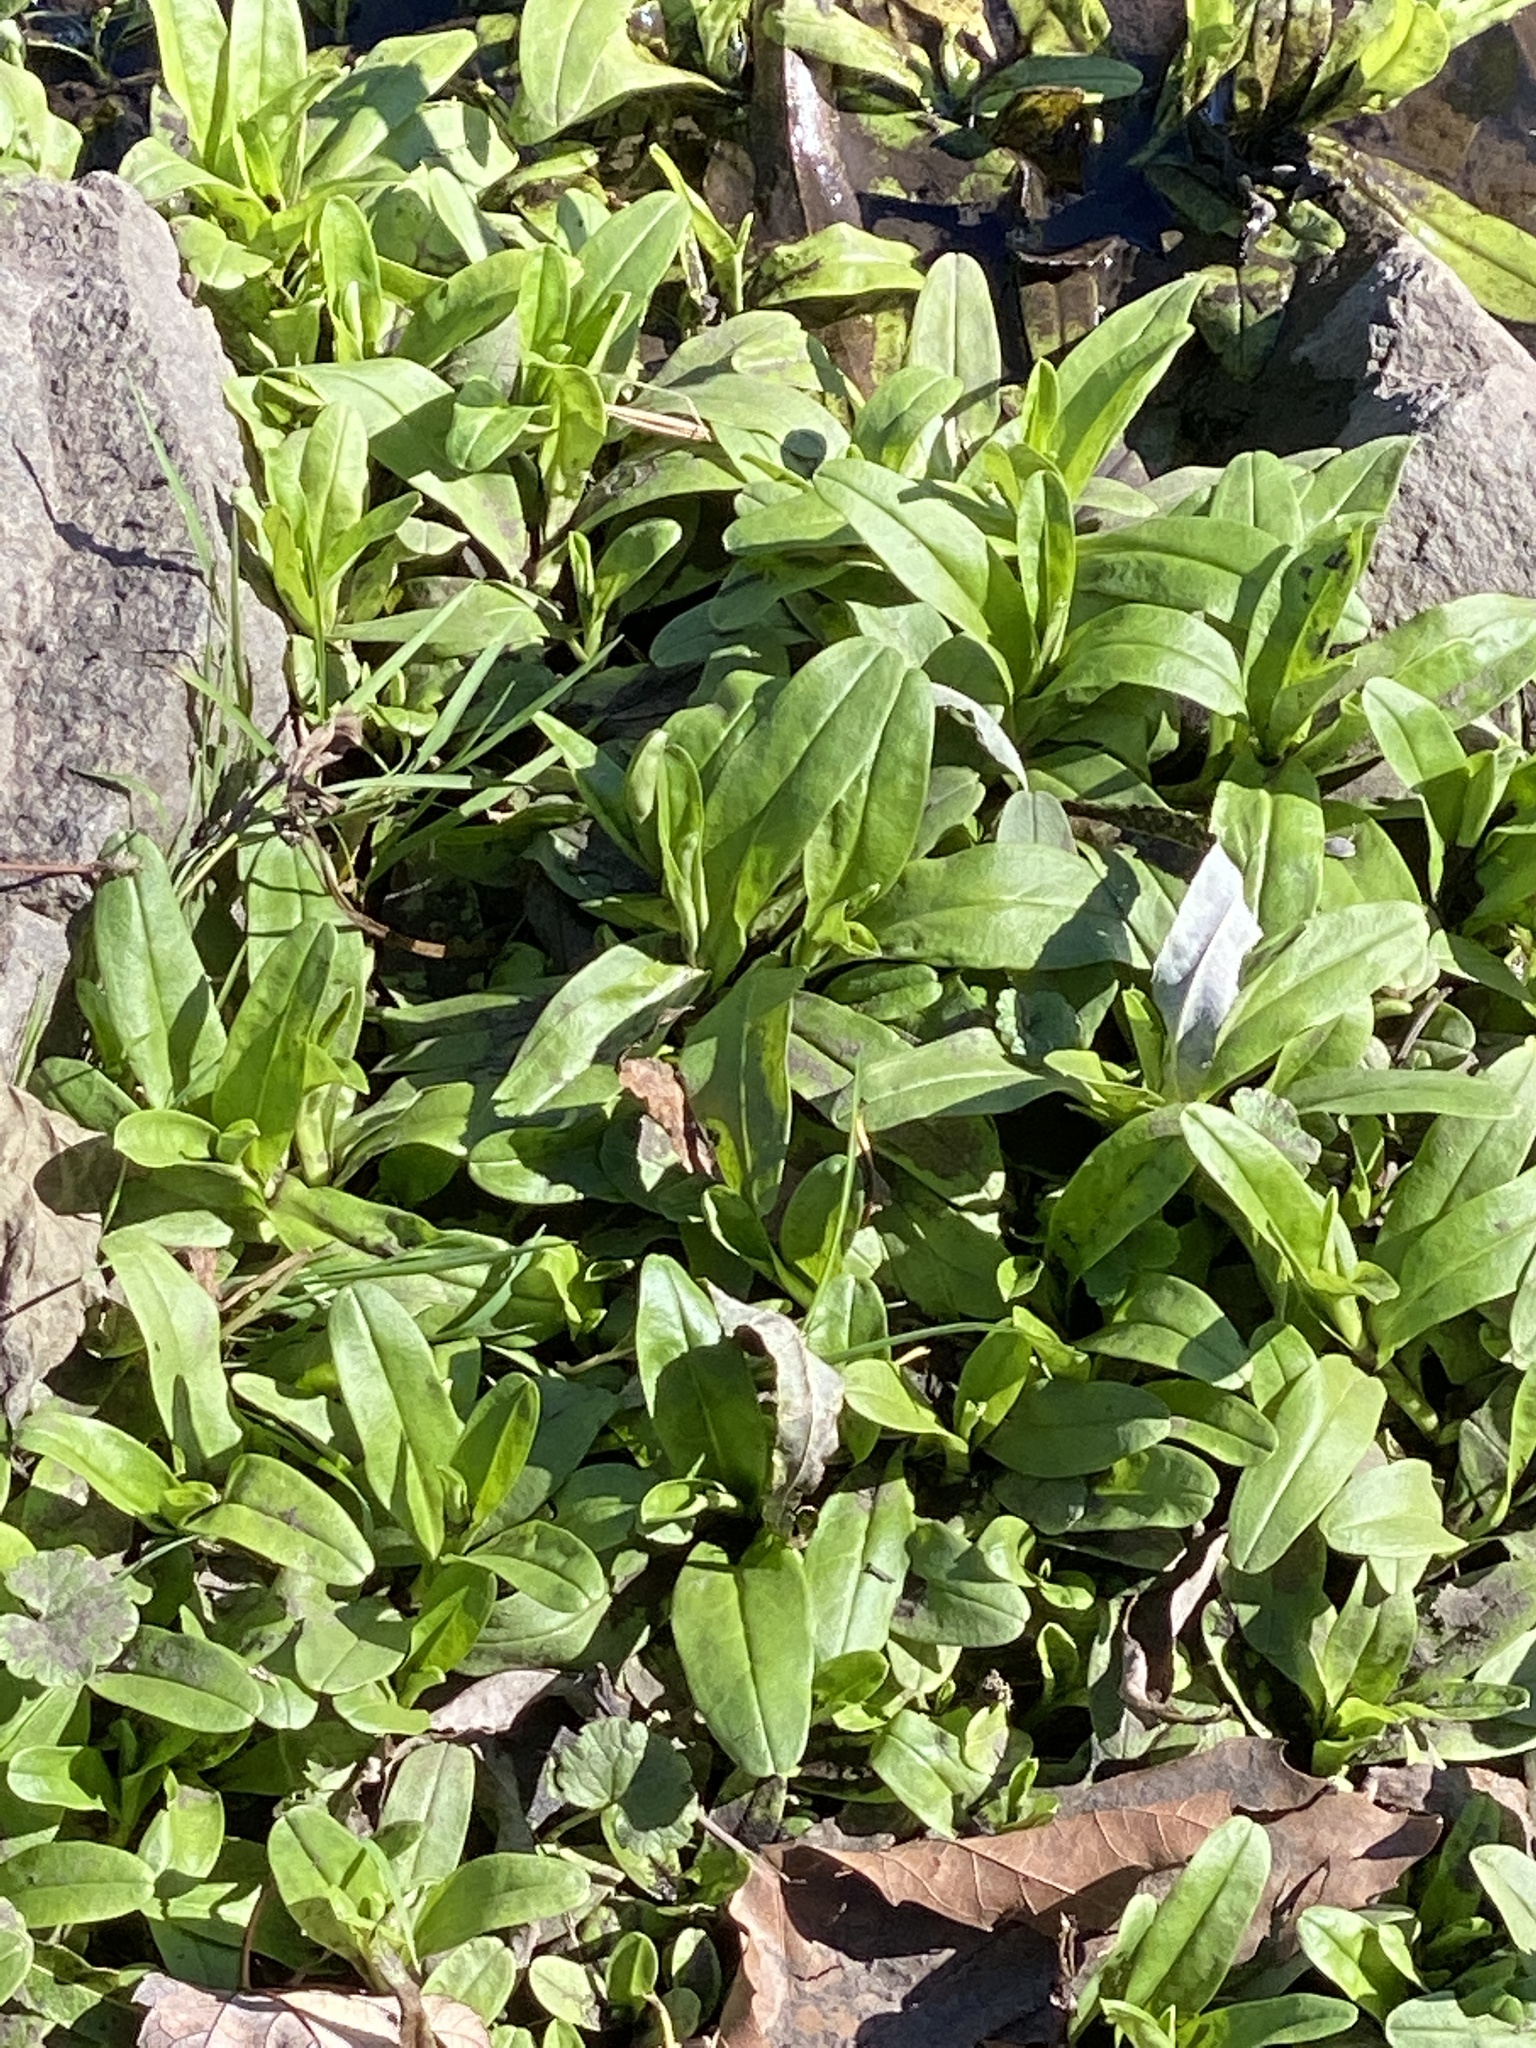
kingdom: Plantae
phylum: Tracheophyta
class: Magnoliopsida
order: Boraginales
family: Boraginaceae
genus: Myosotis
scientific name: Myosotis scorpioides
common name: Water forget-me-not
